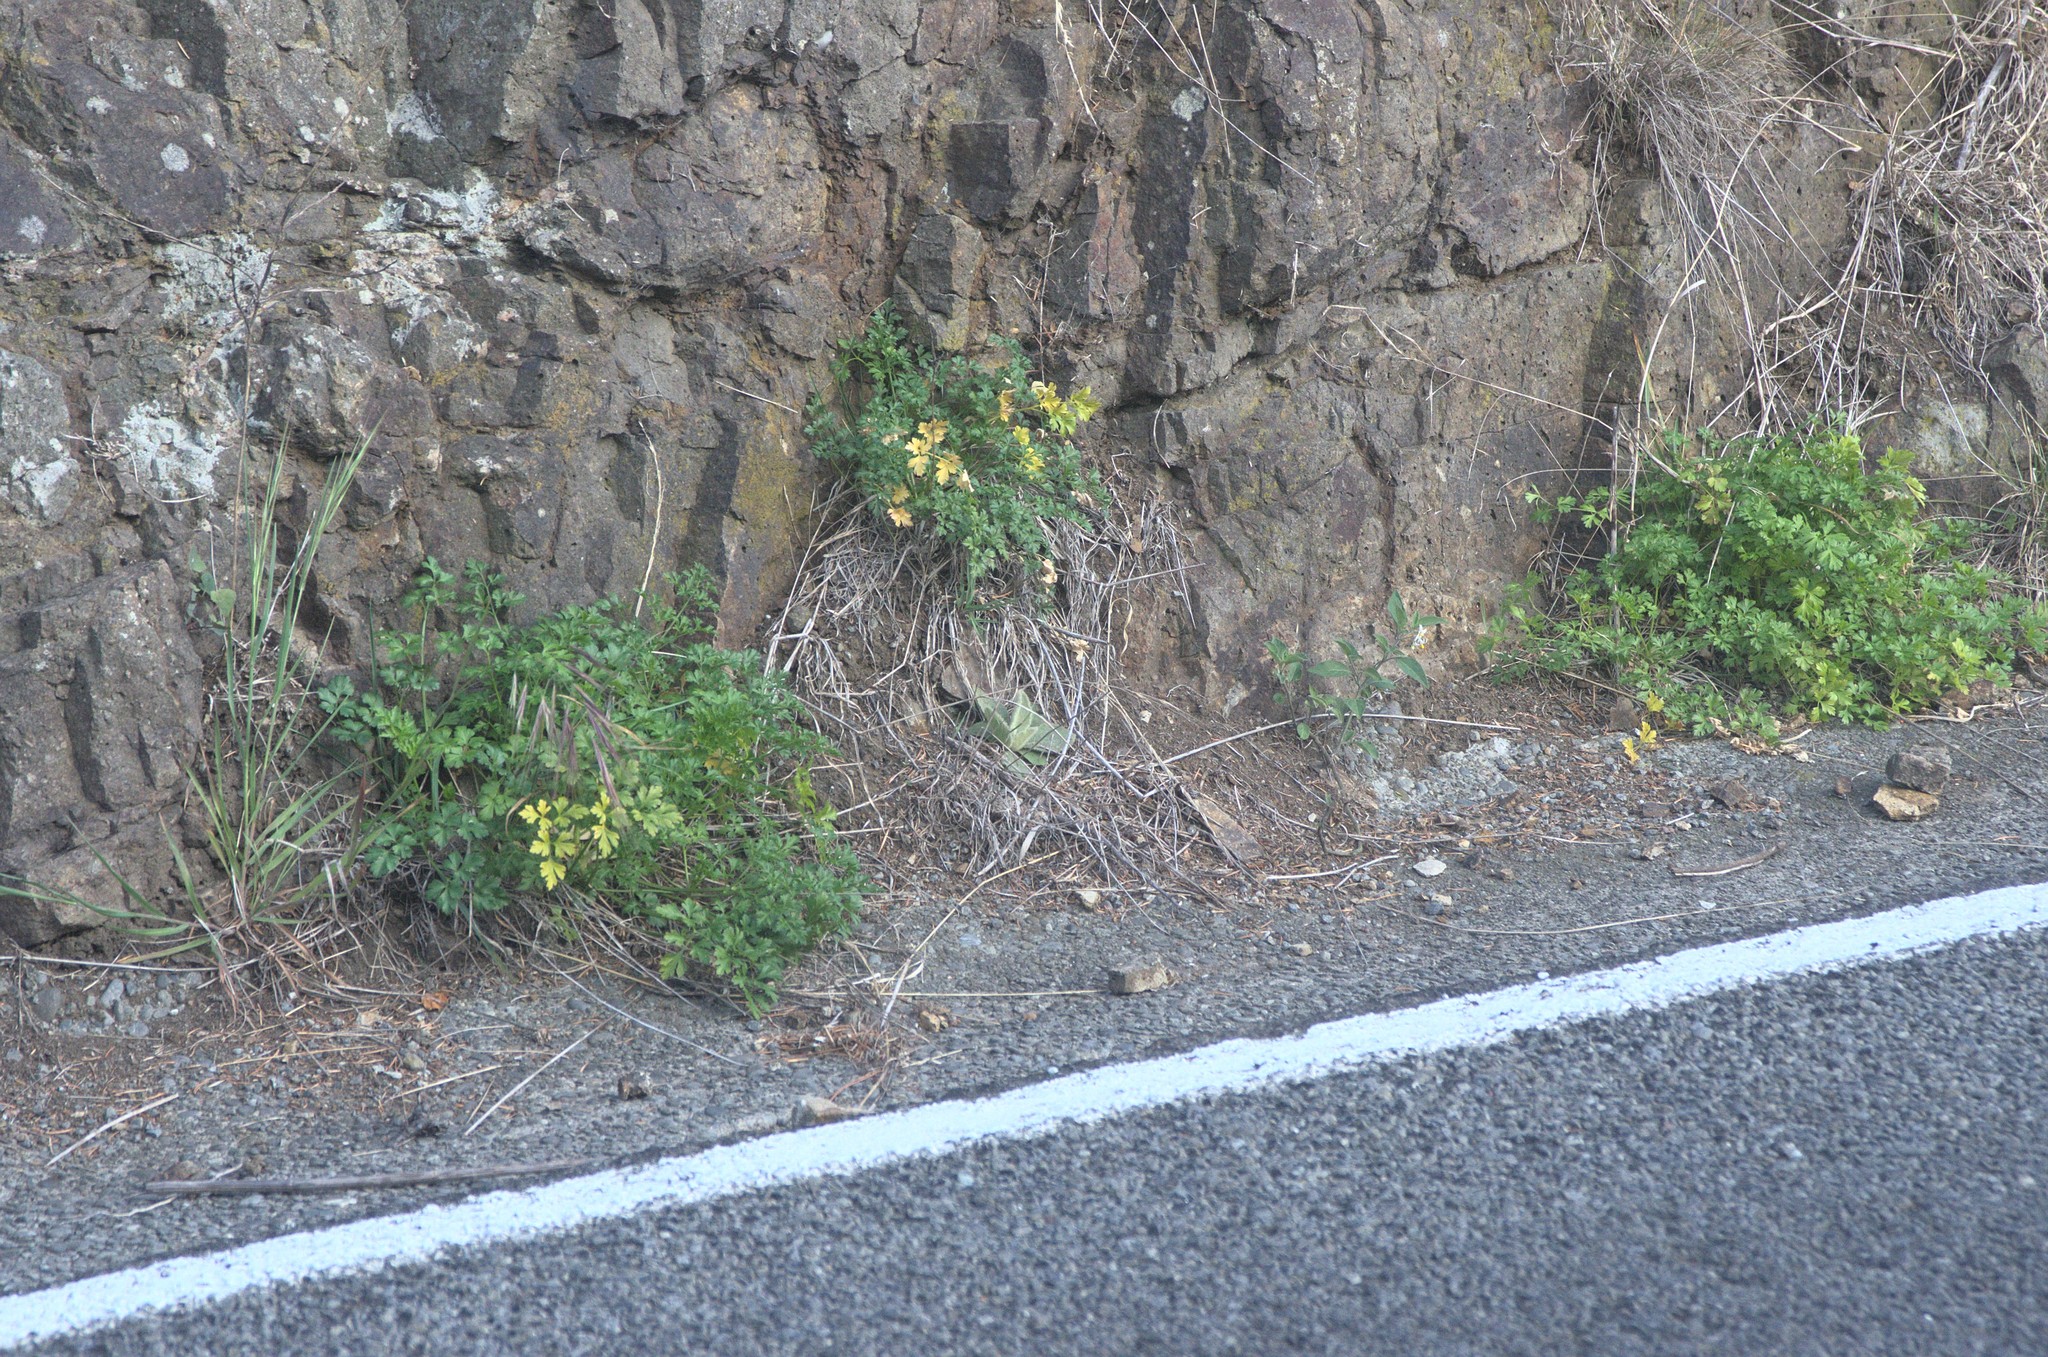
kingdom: Plantae
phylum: Tracheophyta
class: Magnoliopsida
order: Apiales
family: Apiaceae
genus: Petroselinum
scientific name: Petroselinum crispum
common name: Parsley
